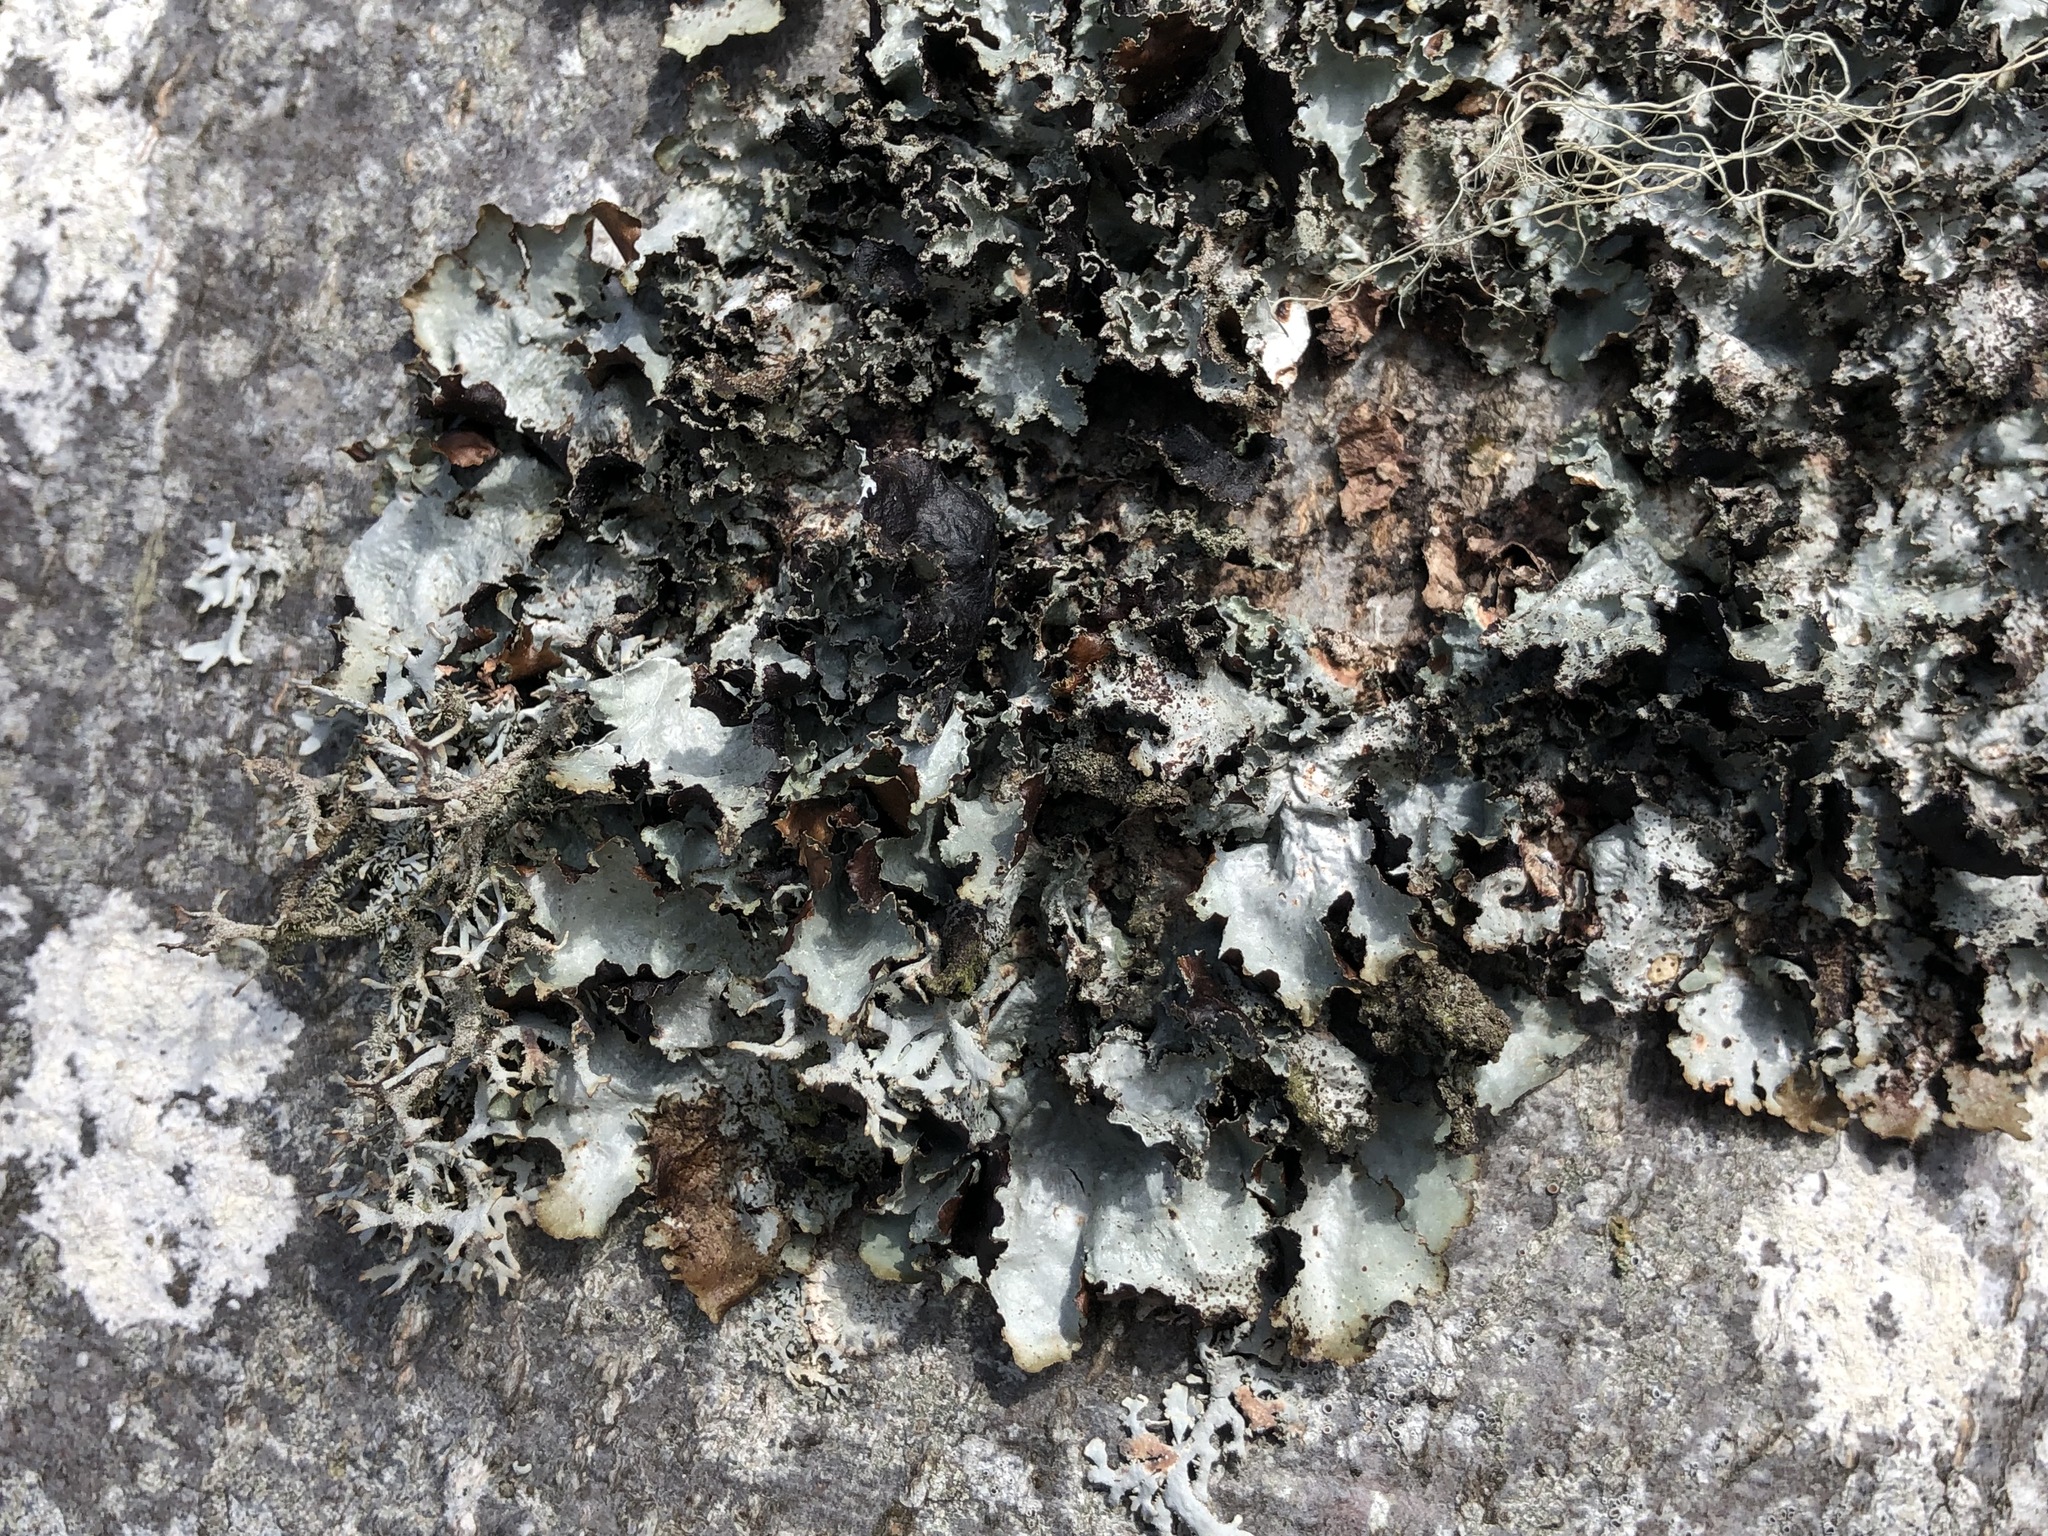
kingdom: Fungi
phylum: Ascomycota
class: Lecanoromycetes
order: Lecanorales
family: Parmeliaceae
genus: Platismatia
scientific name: Platismatia glauca
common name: Varied rag lichen
